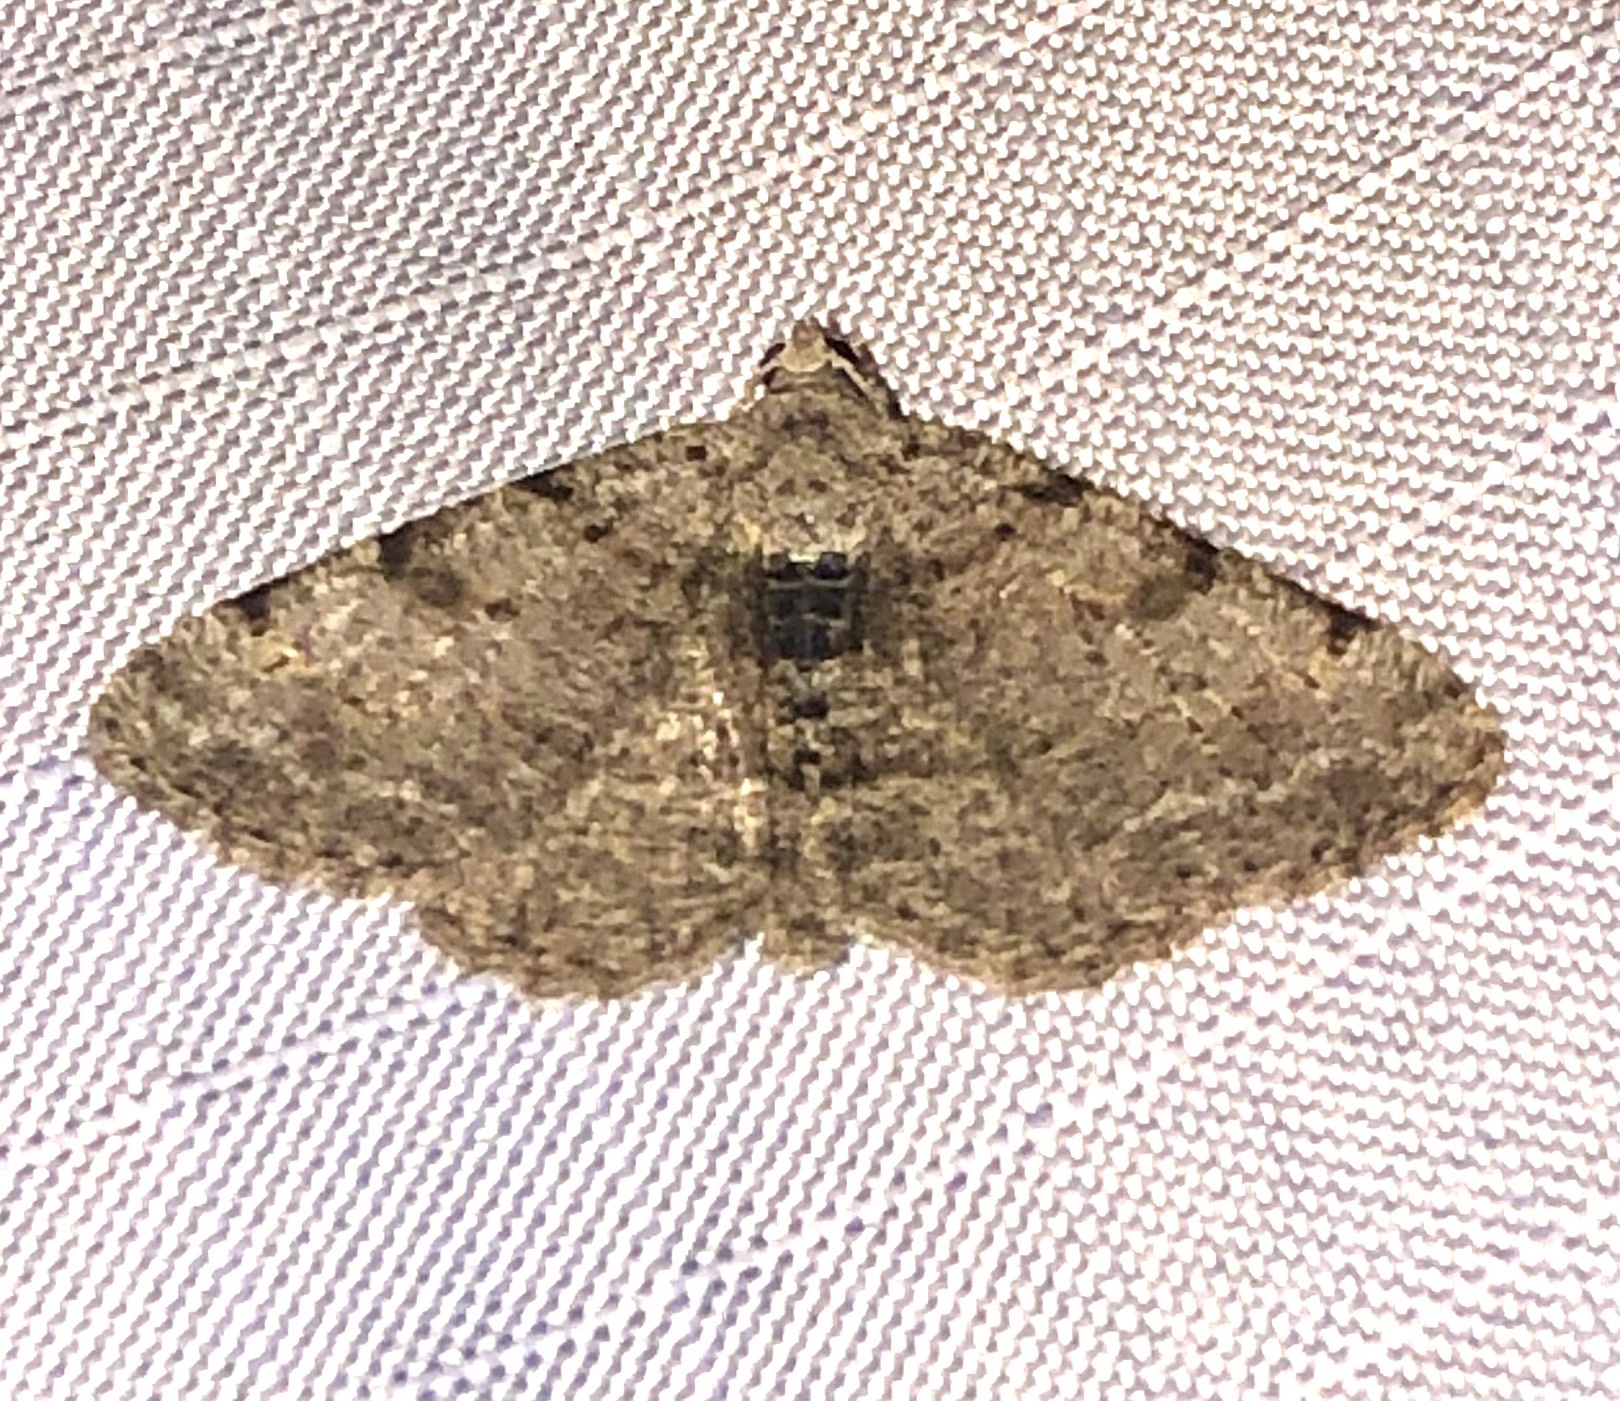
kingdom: Animalia
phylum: Arthropoda
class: Insecta
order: Lepidoptera
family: Geometridae
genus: Digrammia
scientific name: Digrammia gnophosaria
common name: Hollow-spotted angle
